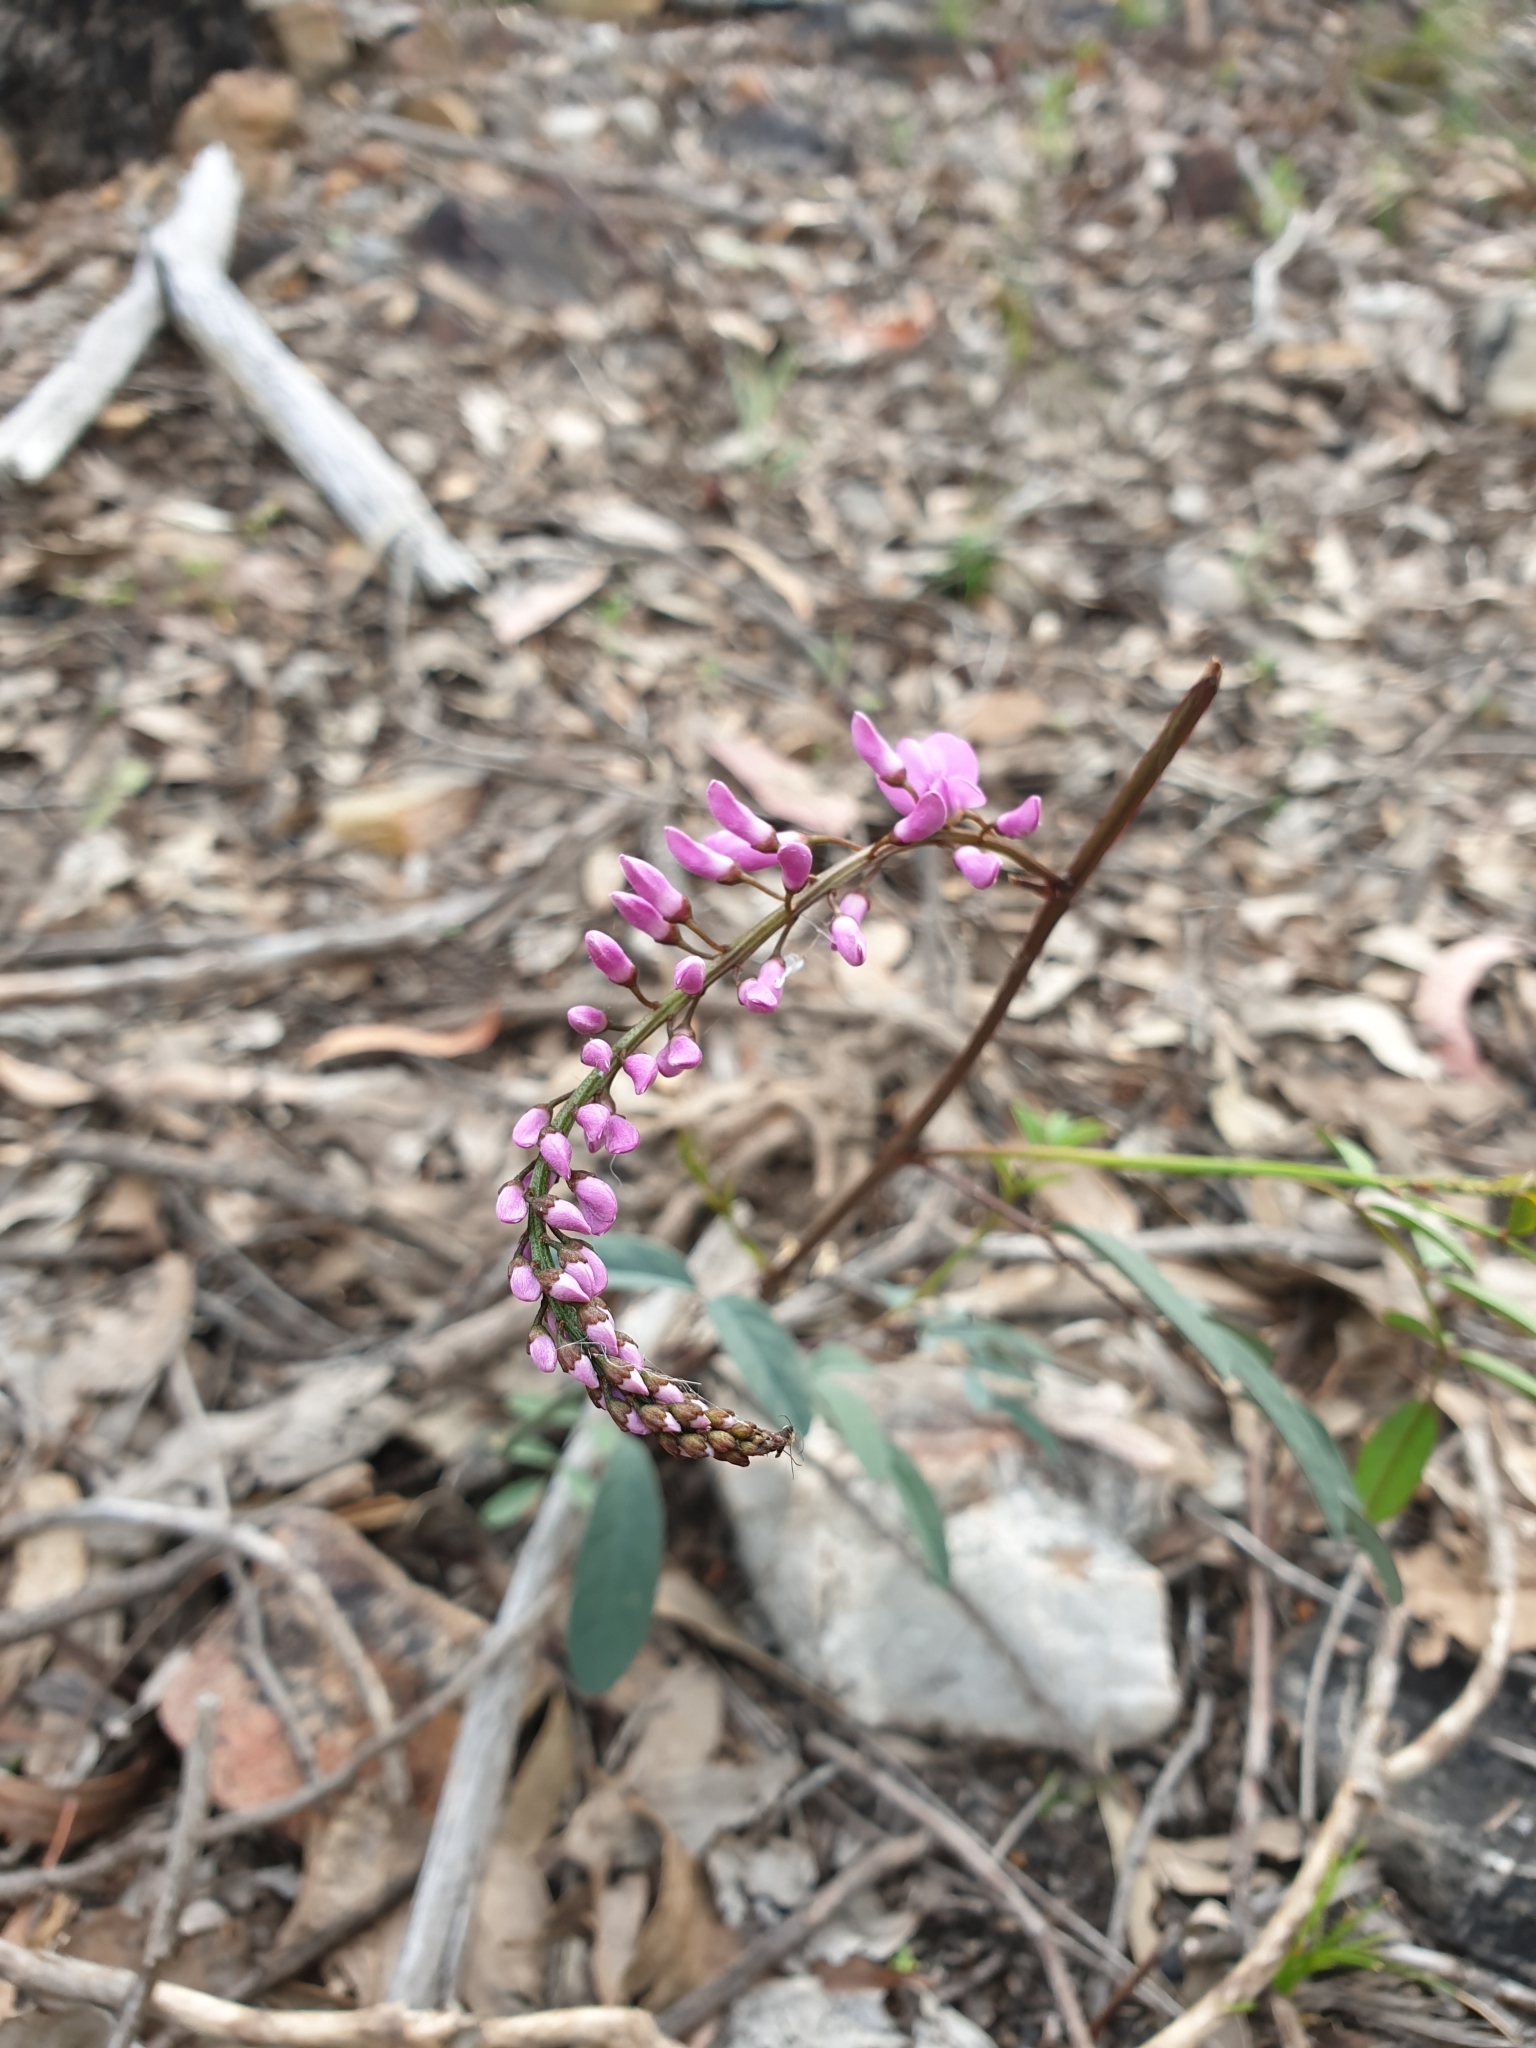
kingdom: Plantae
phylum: Tracheophyta
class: Magnoliopsida
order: Fabales
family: Fabaceae
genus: Indigofera
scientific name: Indigofera australis
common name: Australian indigo
